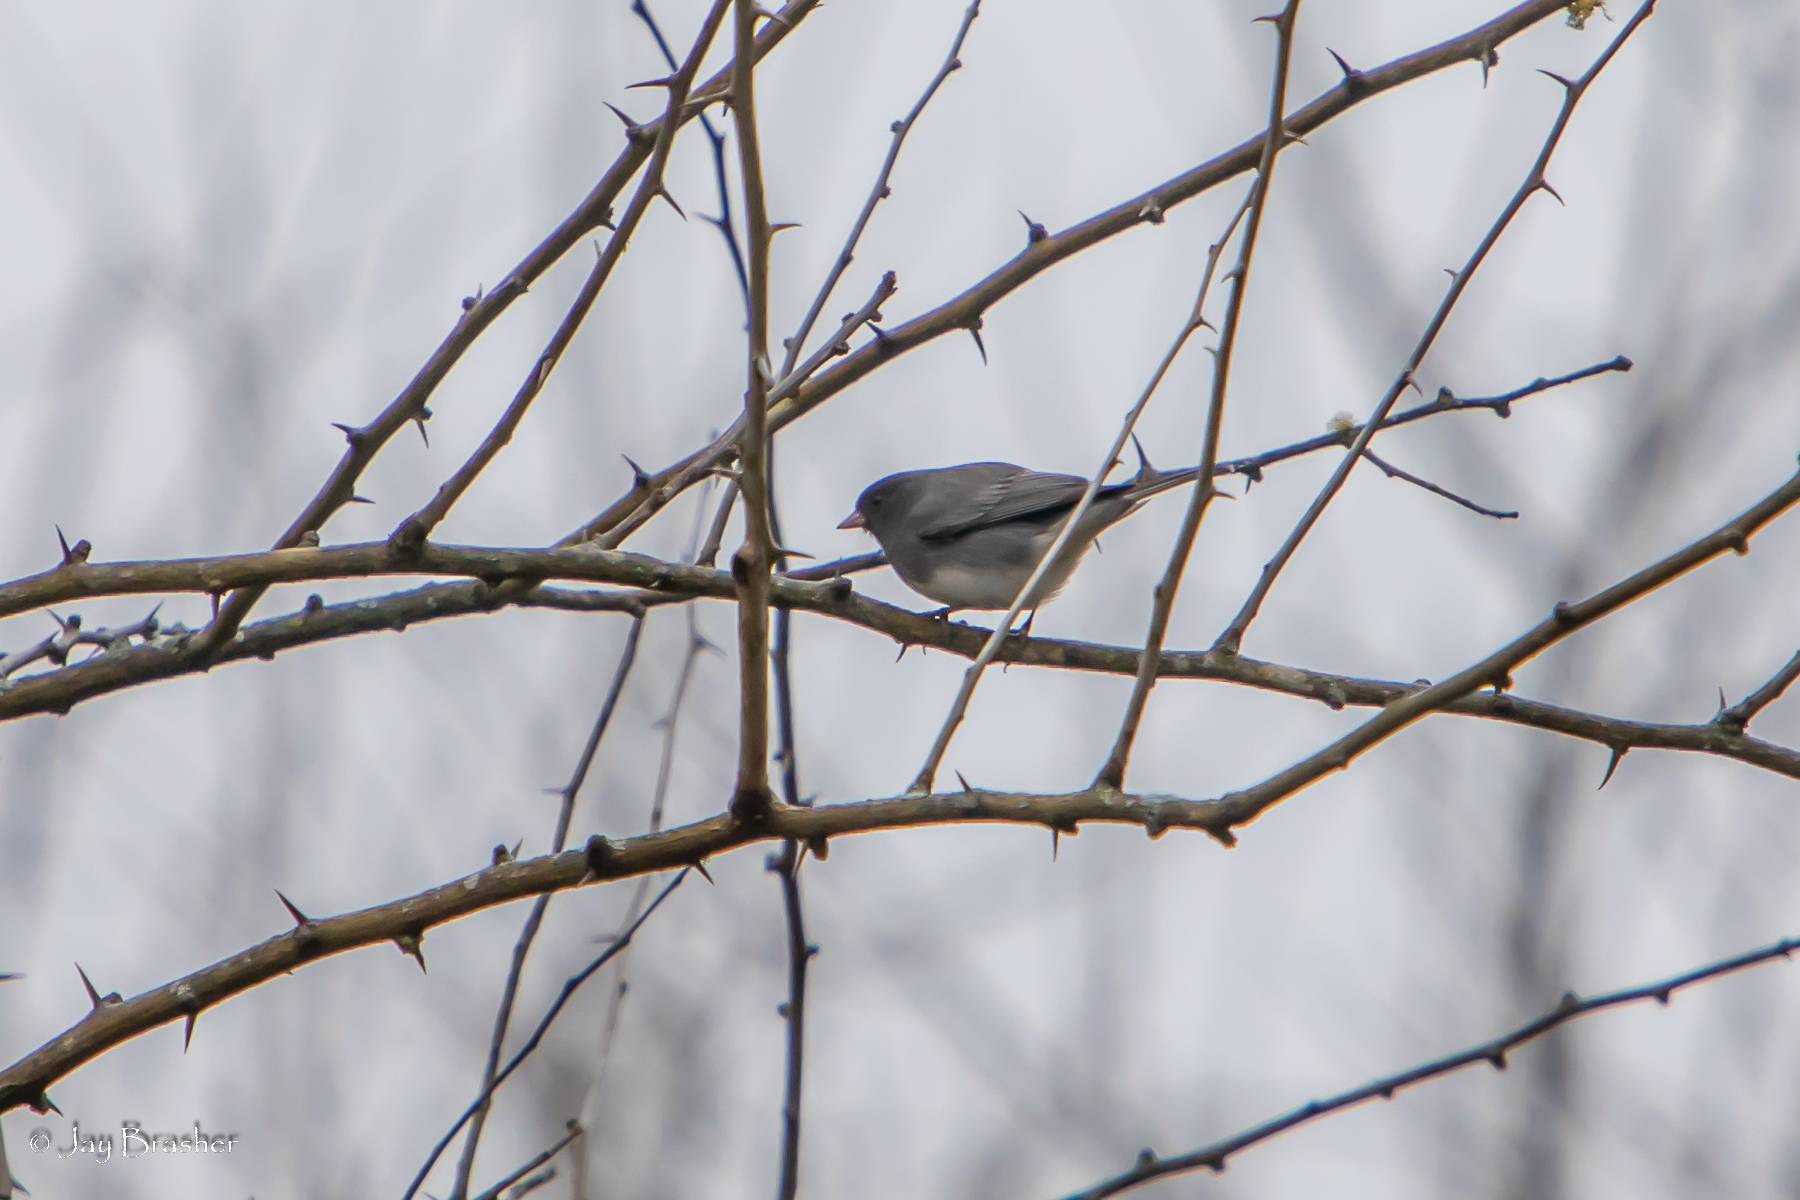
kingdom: Animalia
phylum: Chordata
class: Aves
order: Passeriformes
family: Passerellidae
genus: Junco
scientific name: Junco hyemalis
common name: Dark-eyed junco
